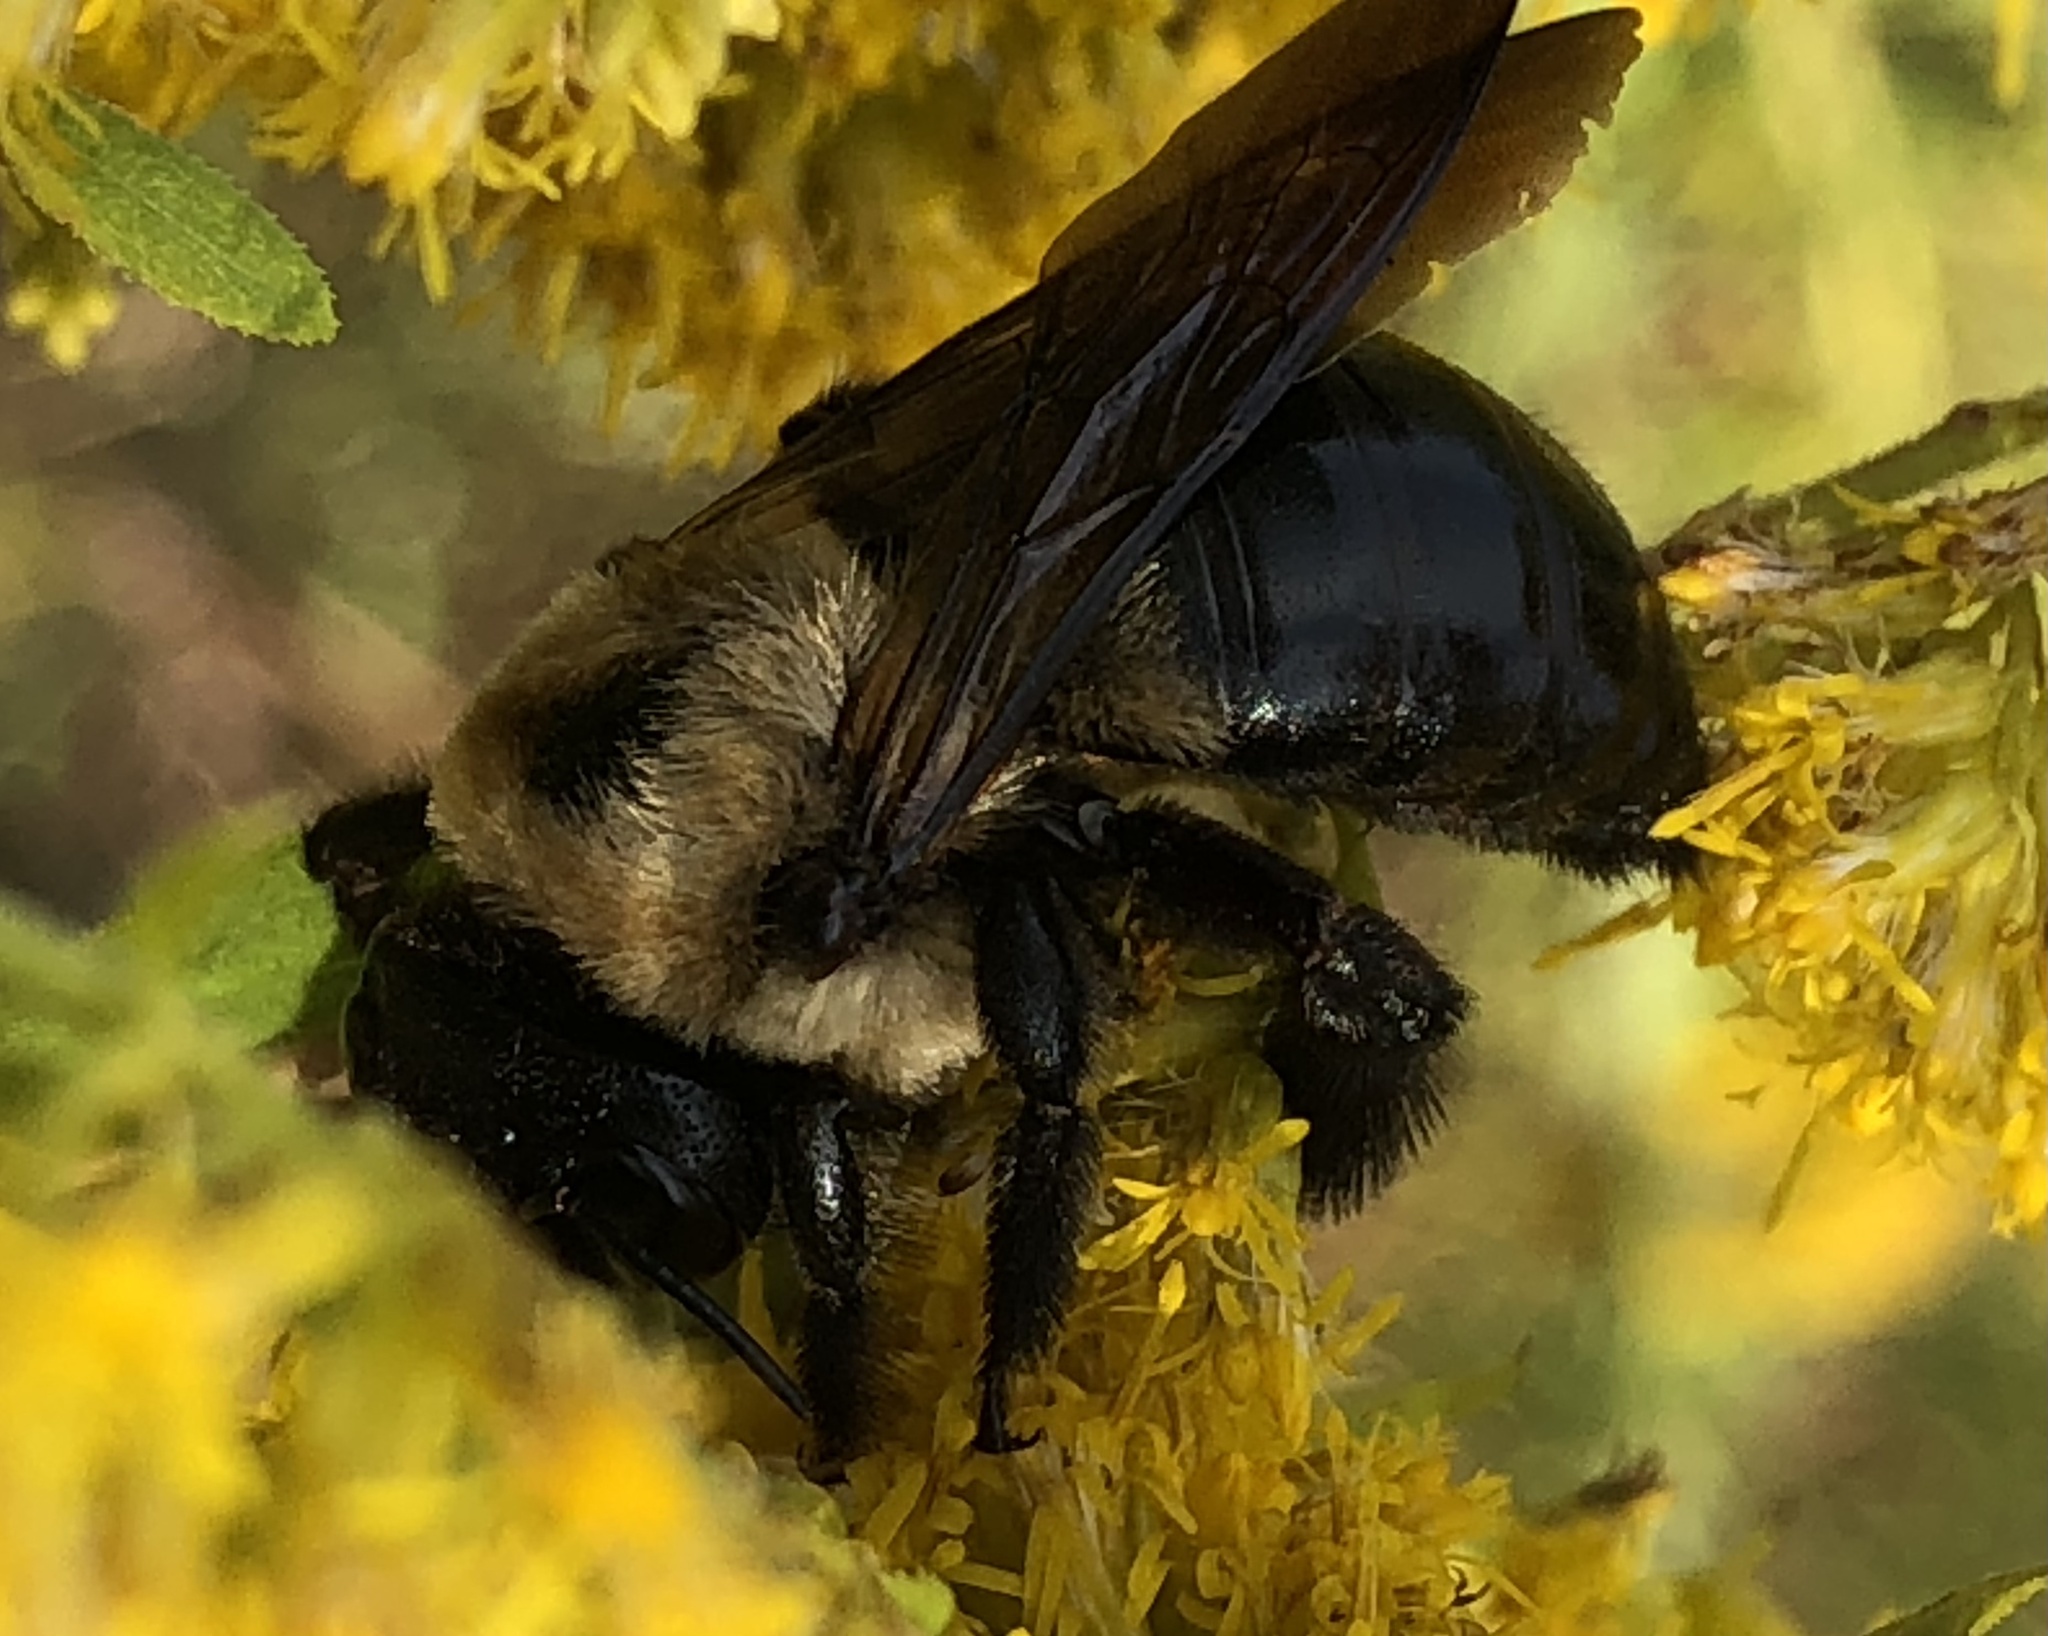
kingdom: Animalia
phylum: Arthropoda
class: Insecta
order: Hymenoptera
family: Apidae
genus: Xylocopa
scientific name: Xylocopa virginica
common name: Carpenter bee
